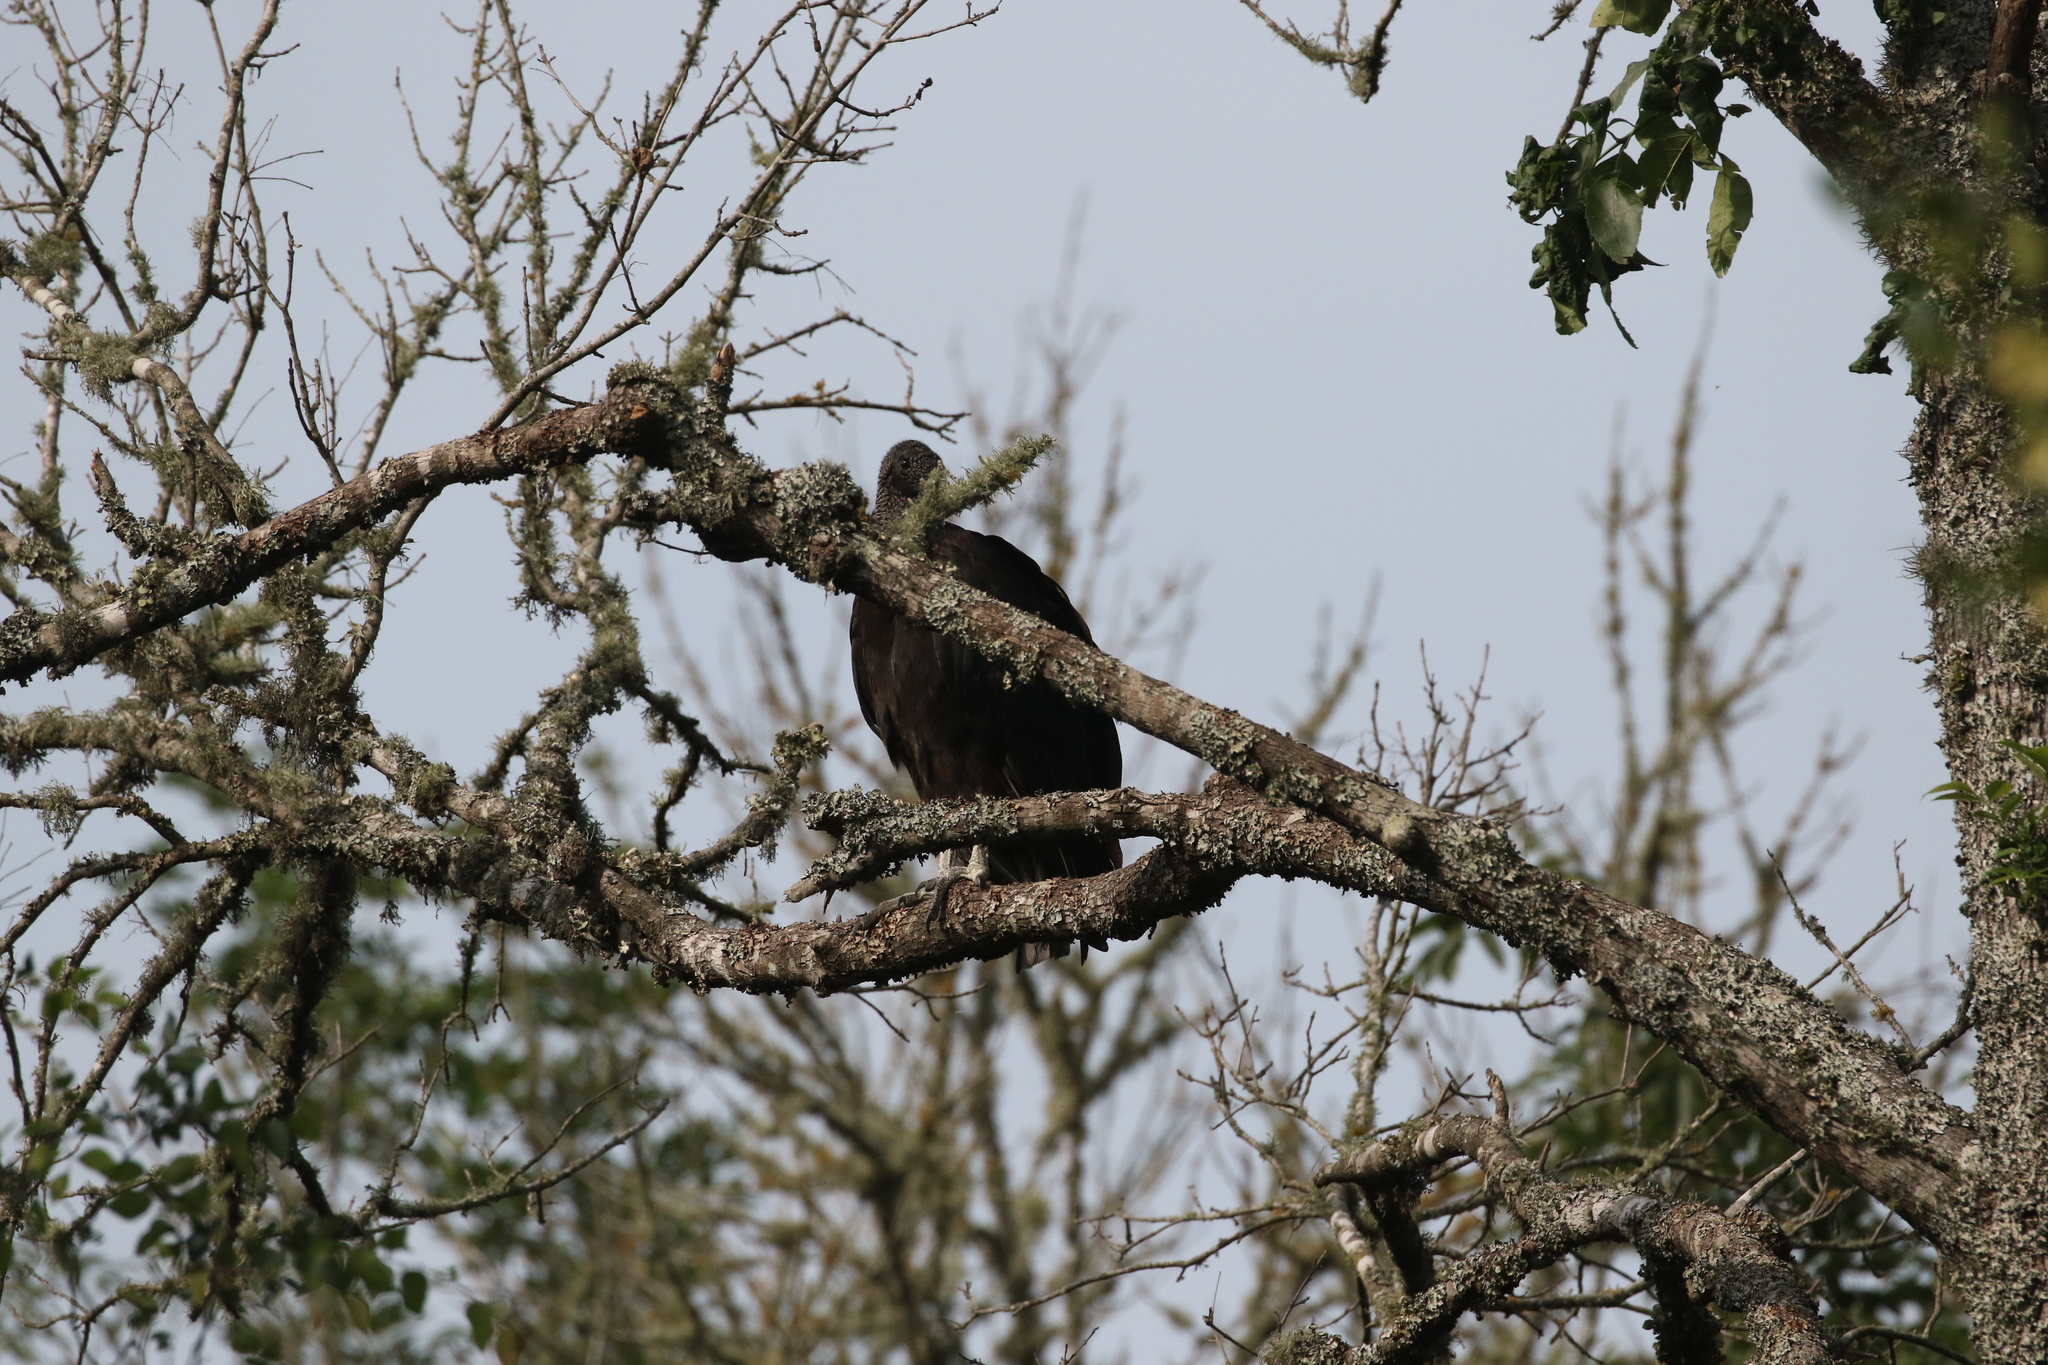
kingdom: Animalia
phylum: Chordata
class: Aves
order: Accipitriformes
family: Cathartidae
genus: Coragyps
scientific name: Coragyps atratus
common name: Black vulture
